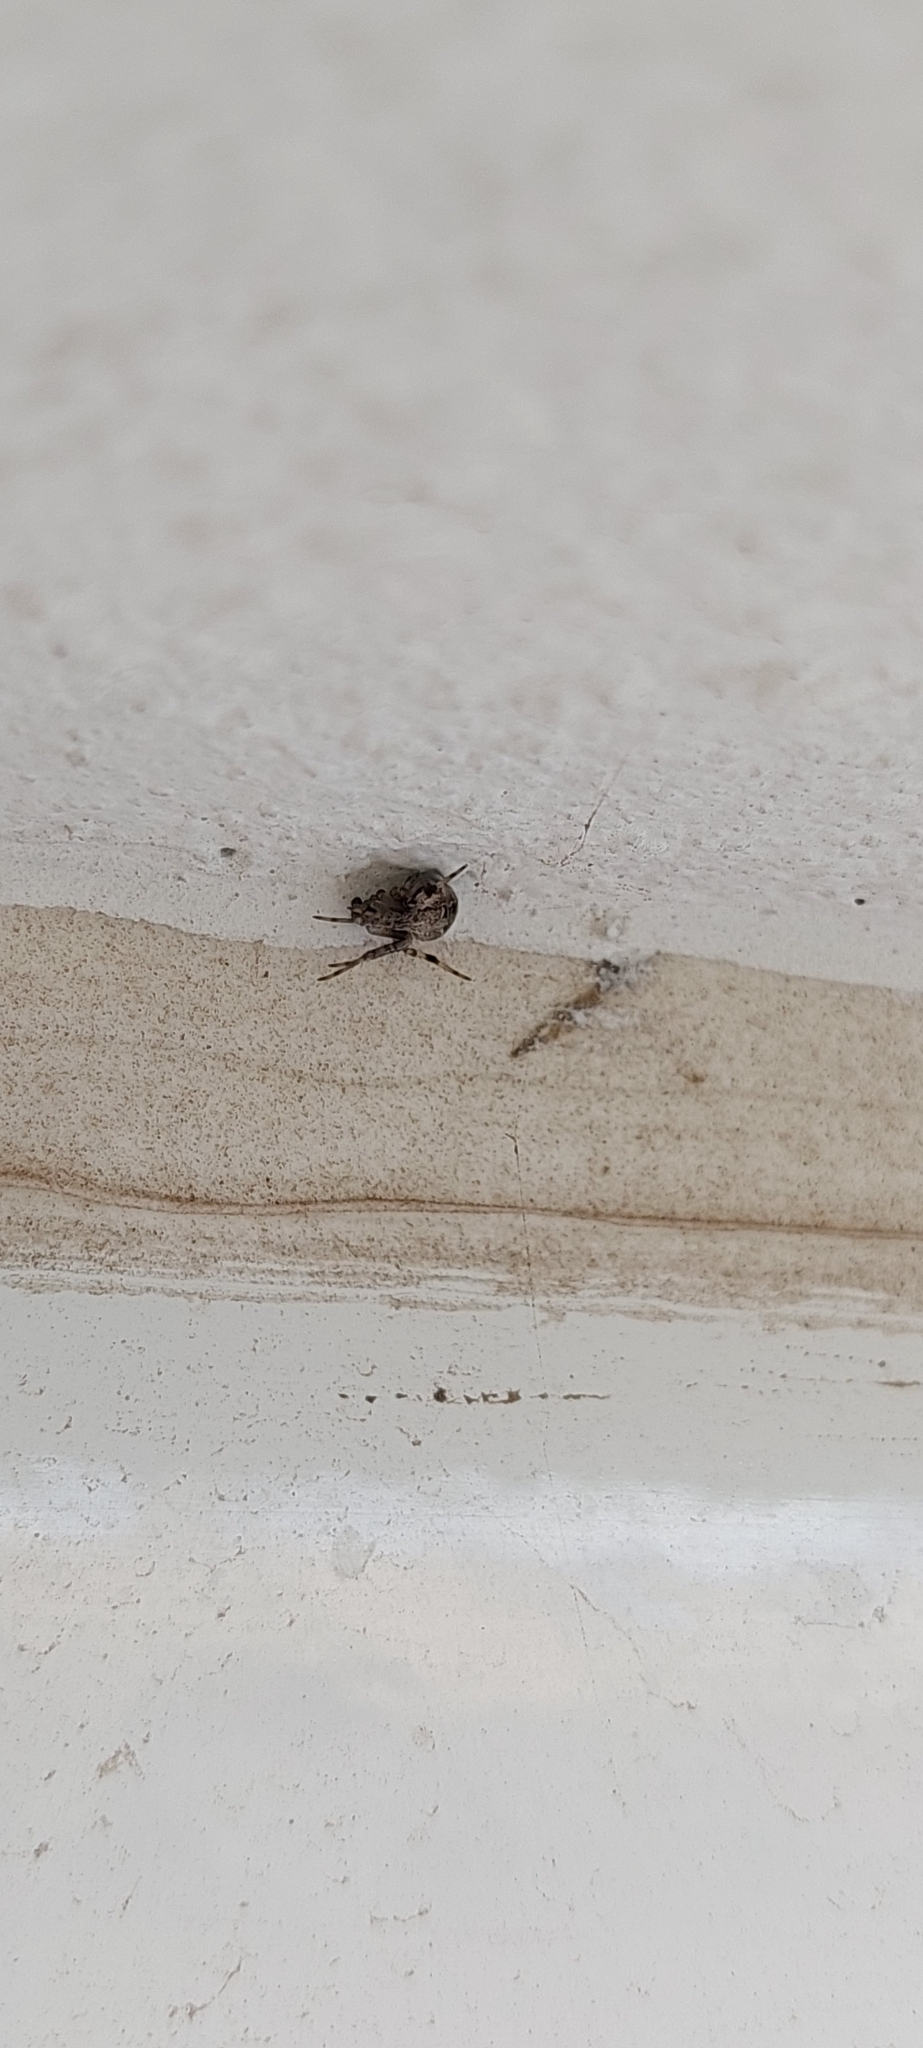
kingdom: Animalia
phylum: Arthropoda
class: Arachnida
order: Araneae
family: Araneidae
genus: Metepeira
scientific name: Metepeira
